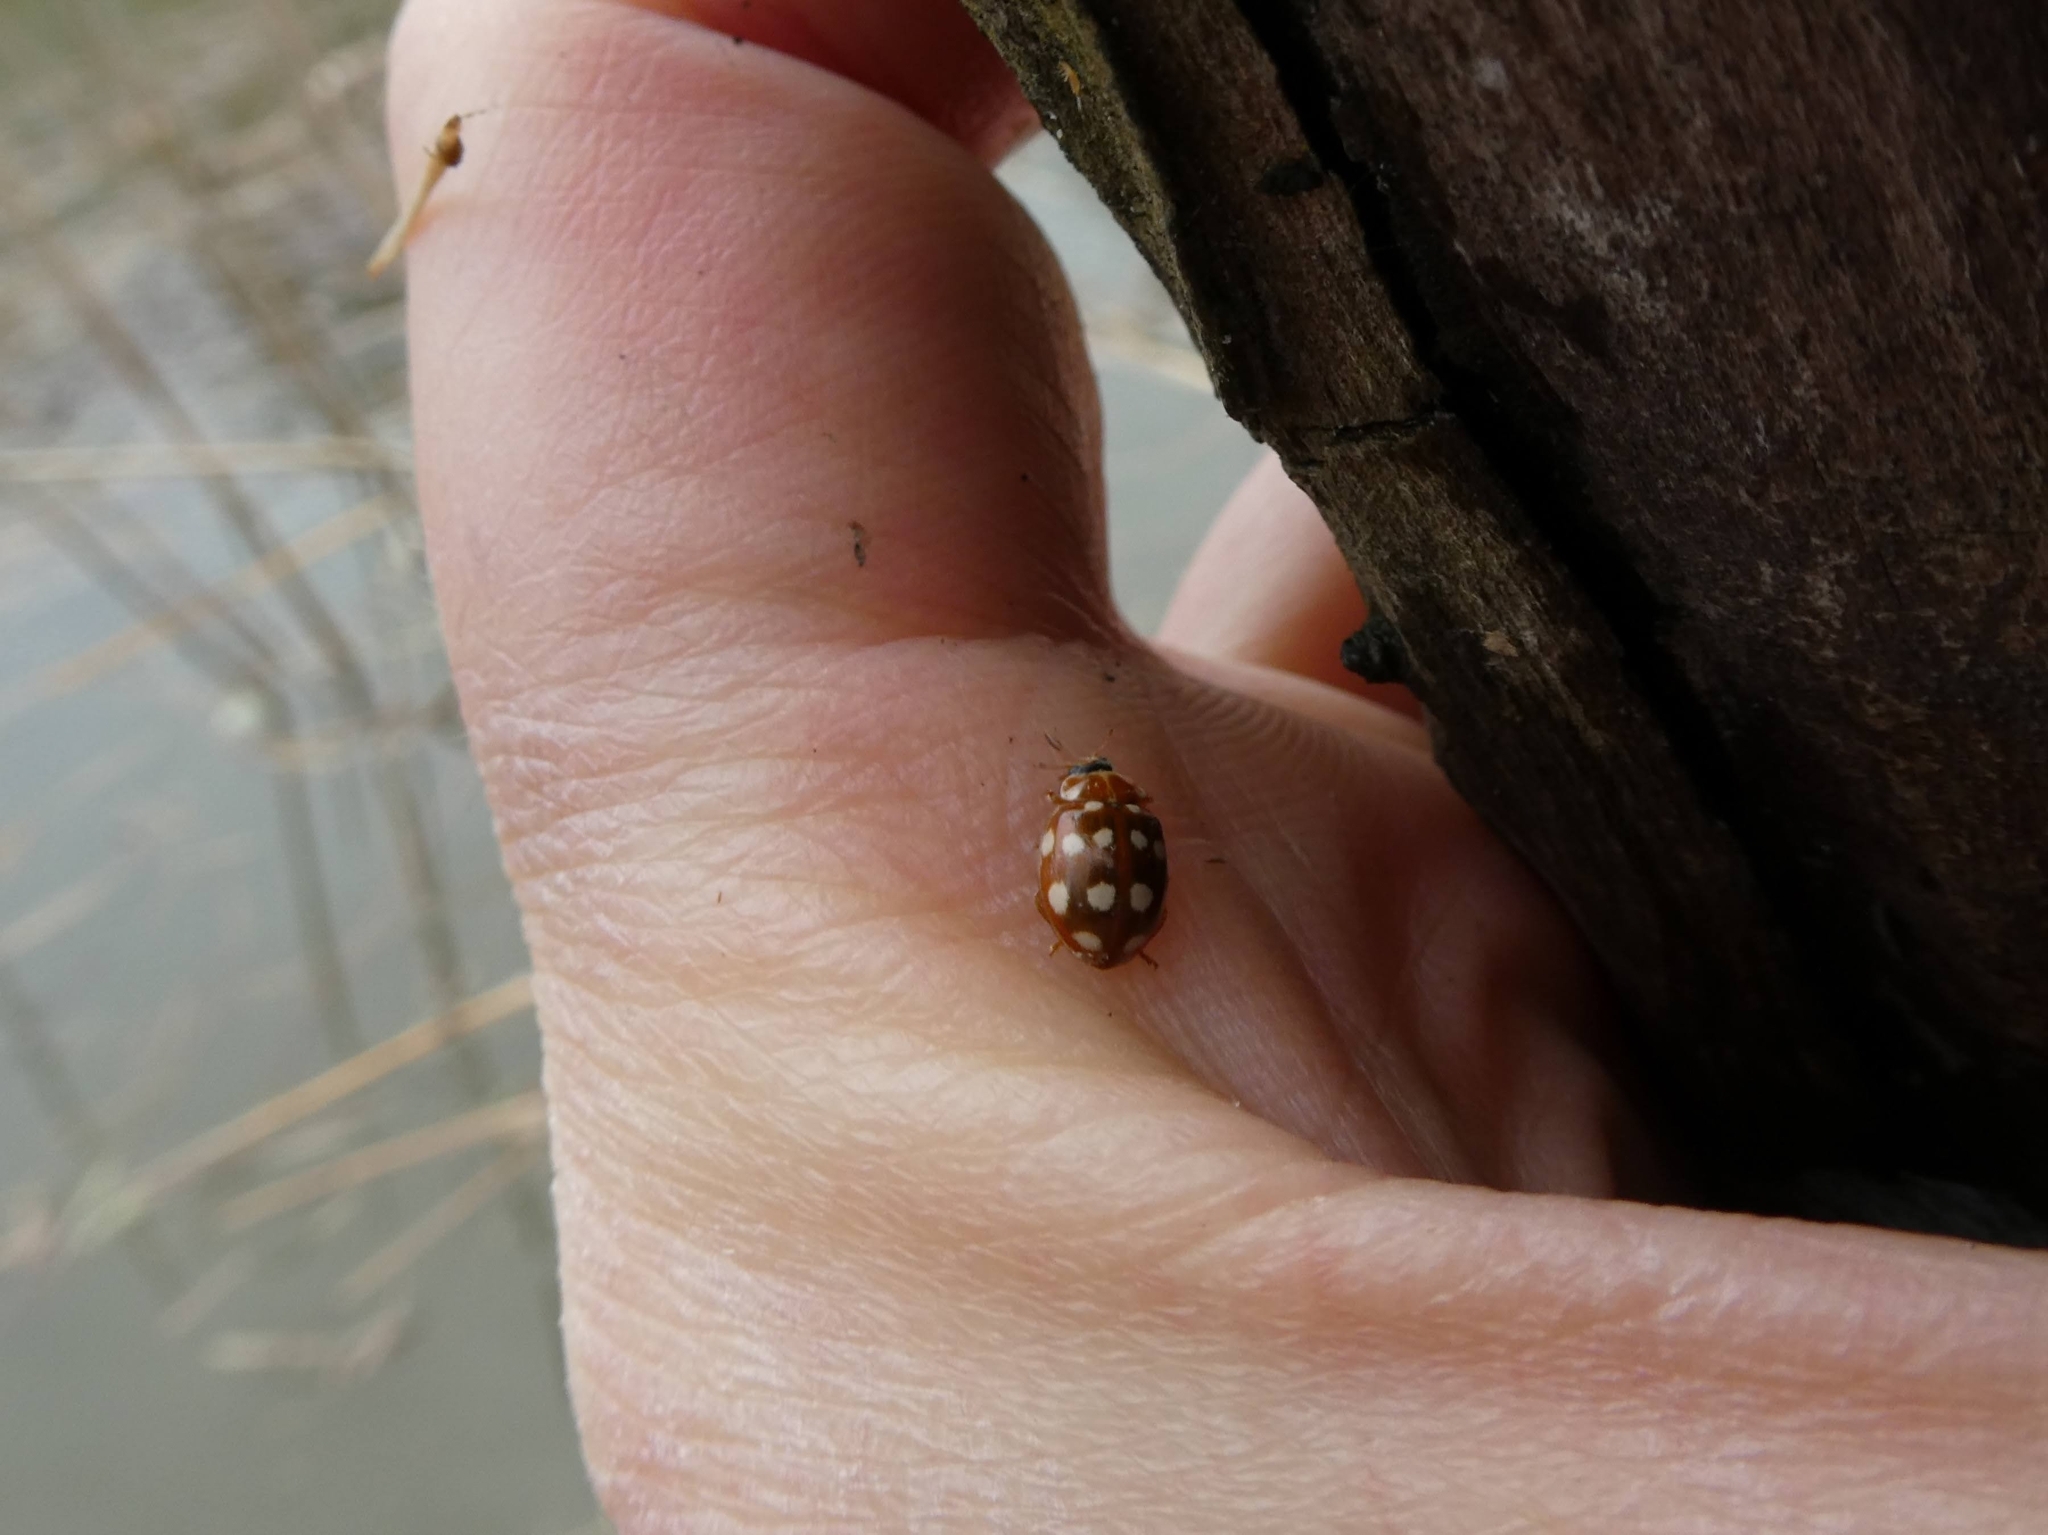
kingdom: Animalia
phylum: Arthropoda
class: Insecta
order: Coleoptera
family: Coccinellidae
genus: Calvia
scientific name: Calvia quatuordecimguttata
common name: Cream-spot ladybird
